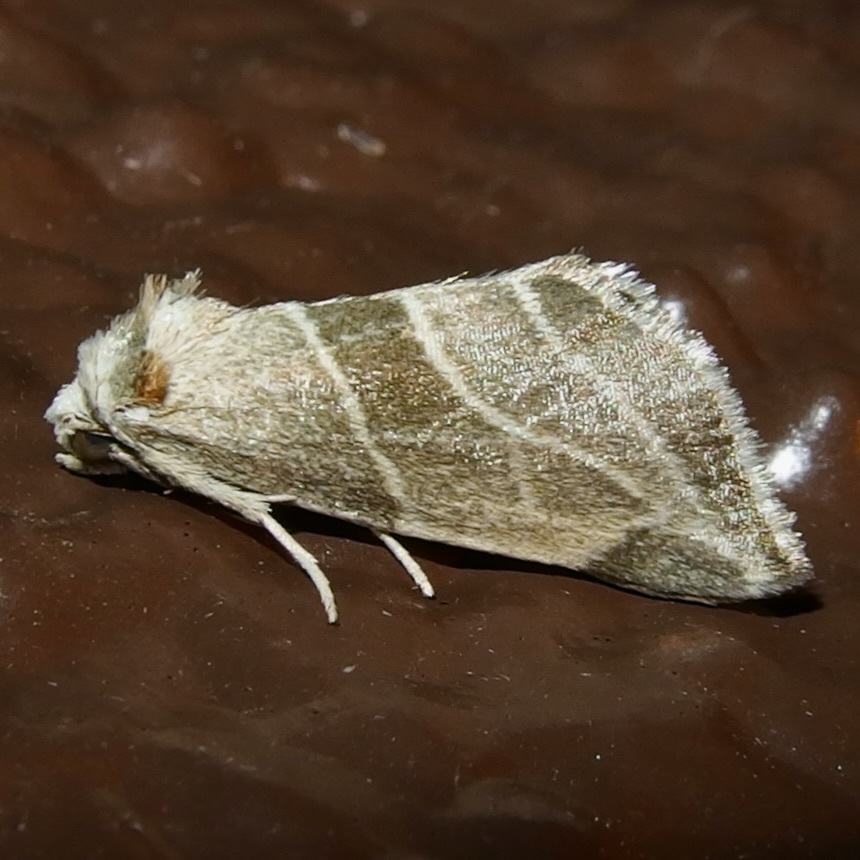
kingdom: Animalia
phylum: Arthropoda
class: Insecta
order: Lepidoptera
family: Noctuidae
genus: Plagiomimicus
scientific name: Plagiomimicus mimica
